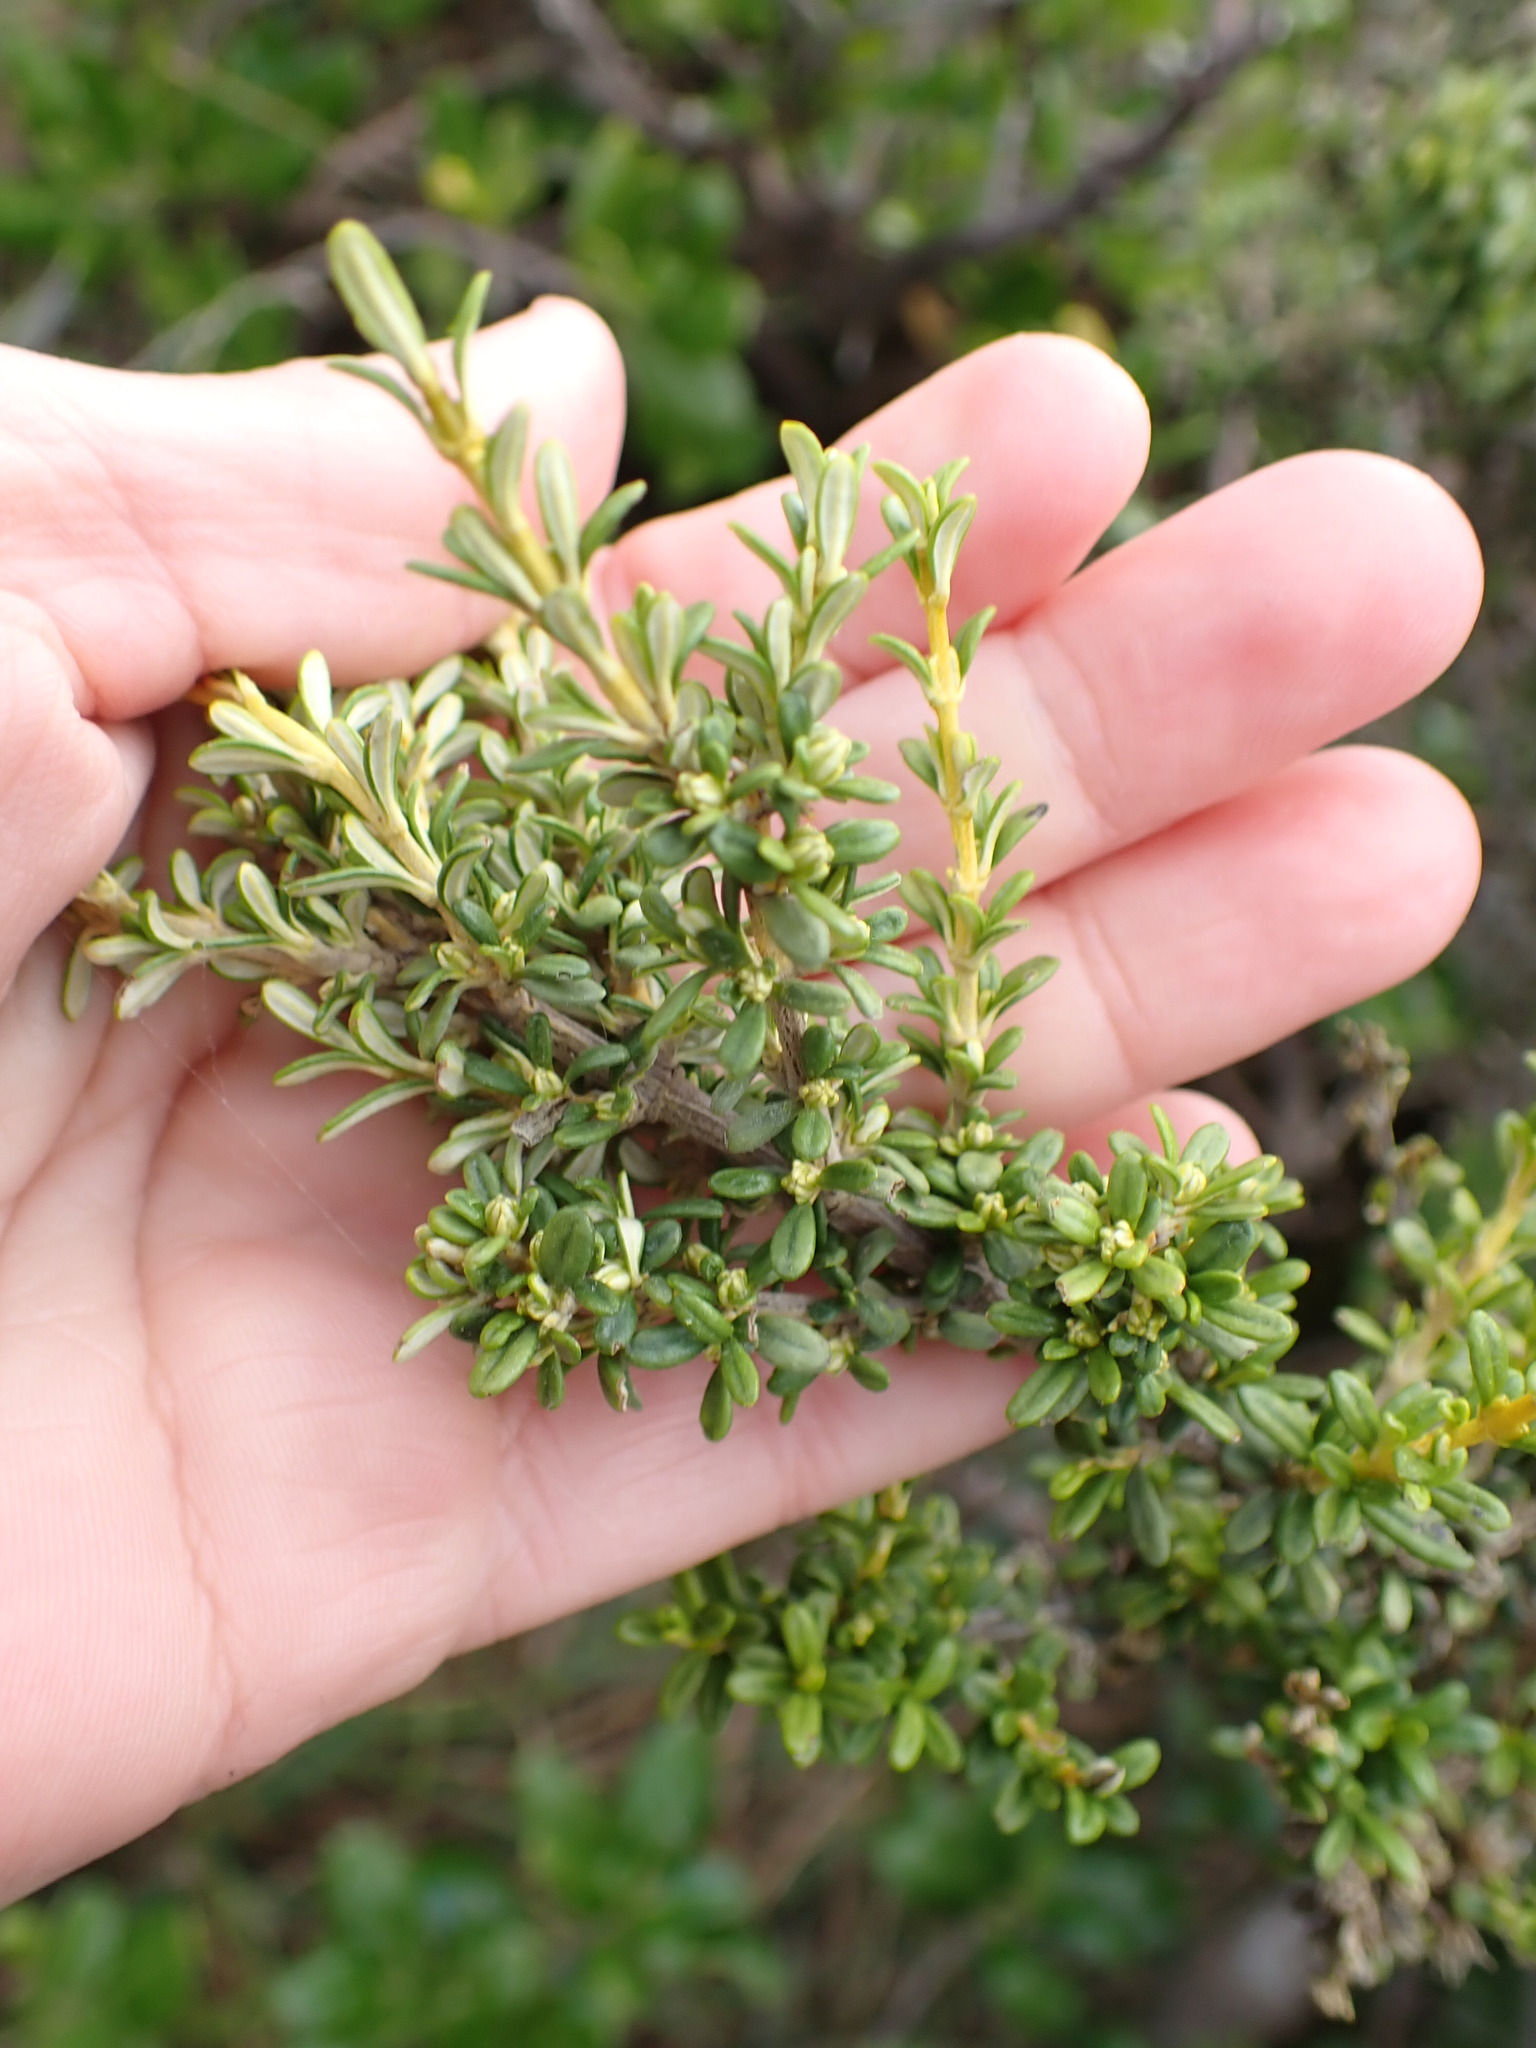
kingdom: Plantae
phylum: Tracheophyta
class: Magnoliopsida
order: Asterales
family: Asteraceae
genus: Ozothamnus
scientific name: Ozothamnus leptophyllus
